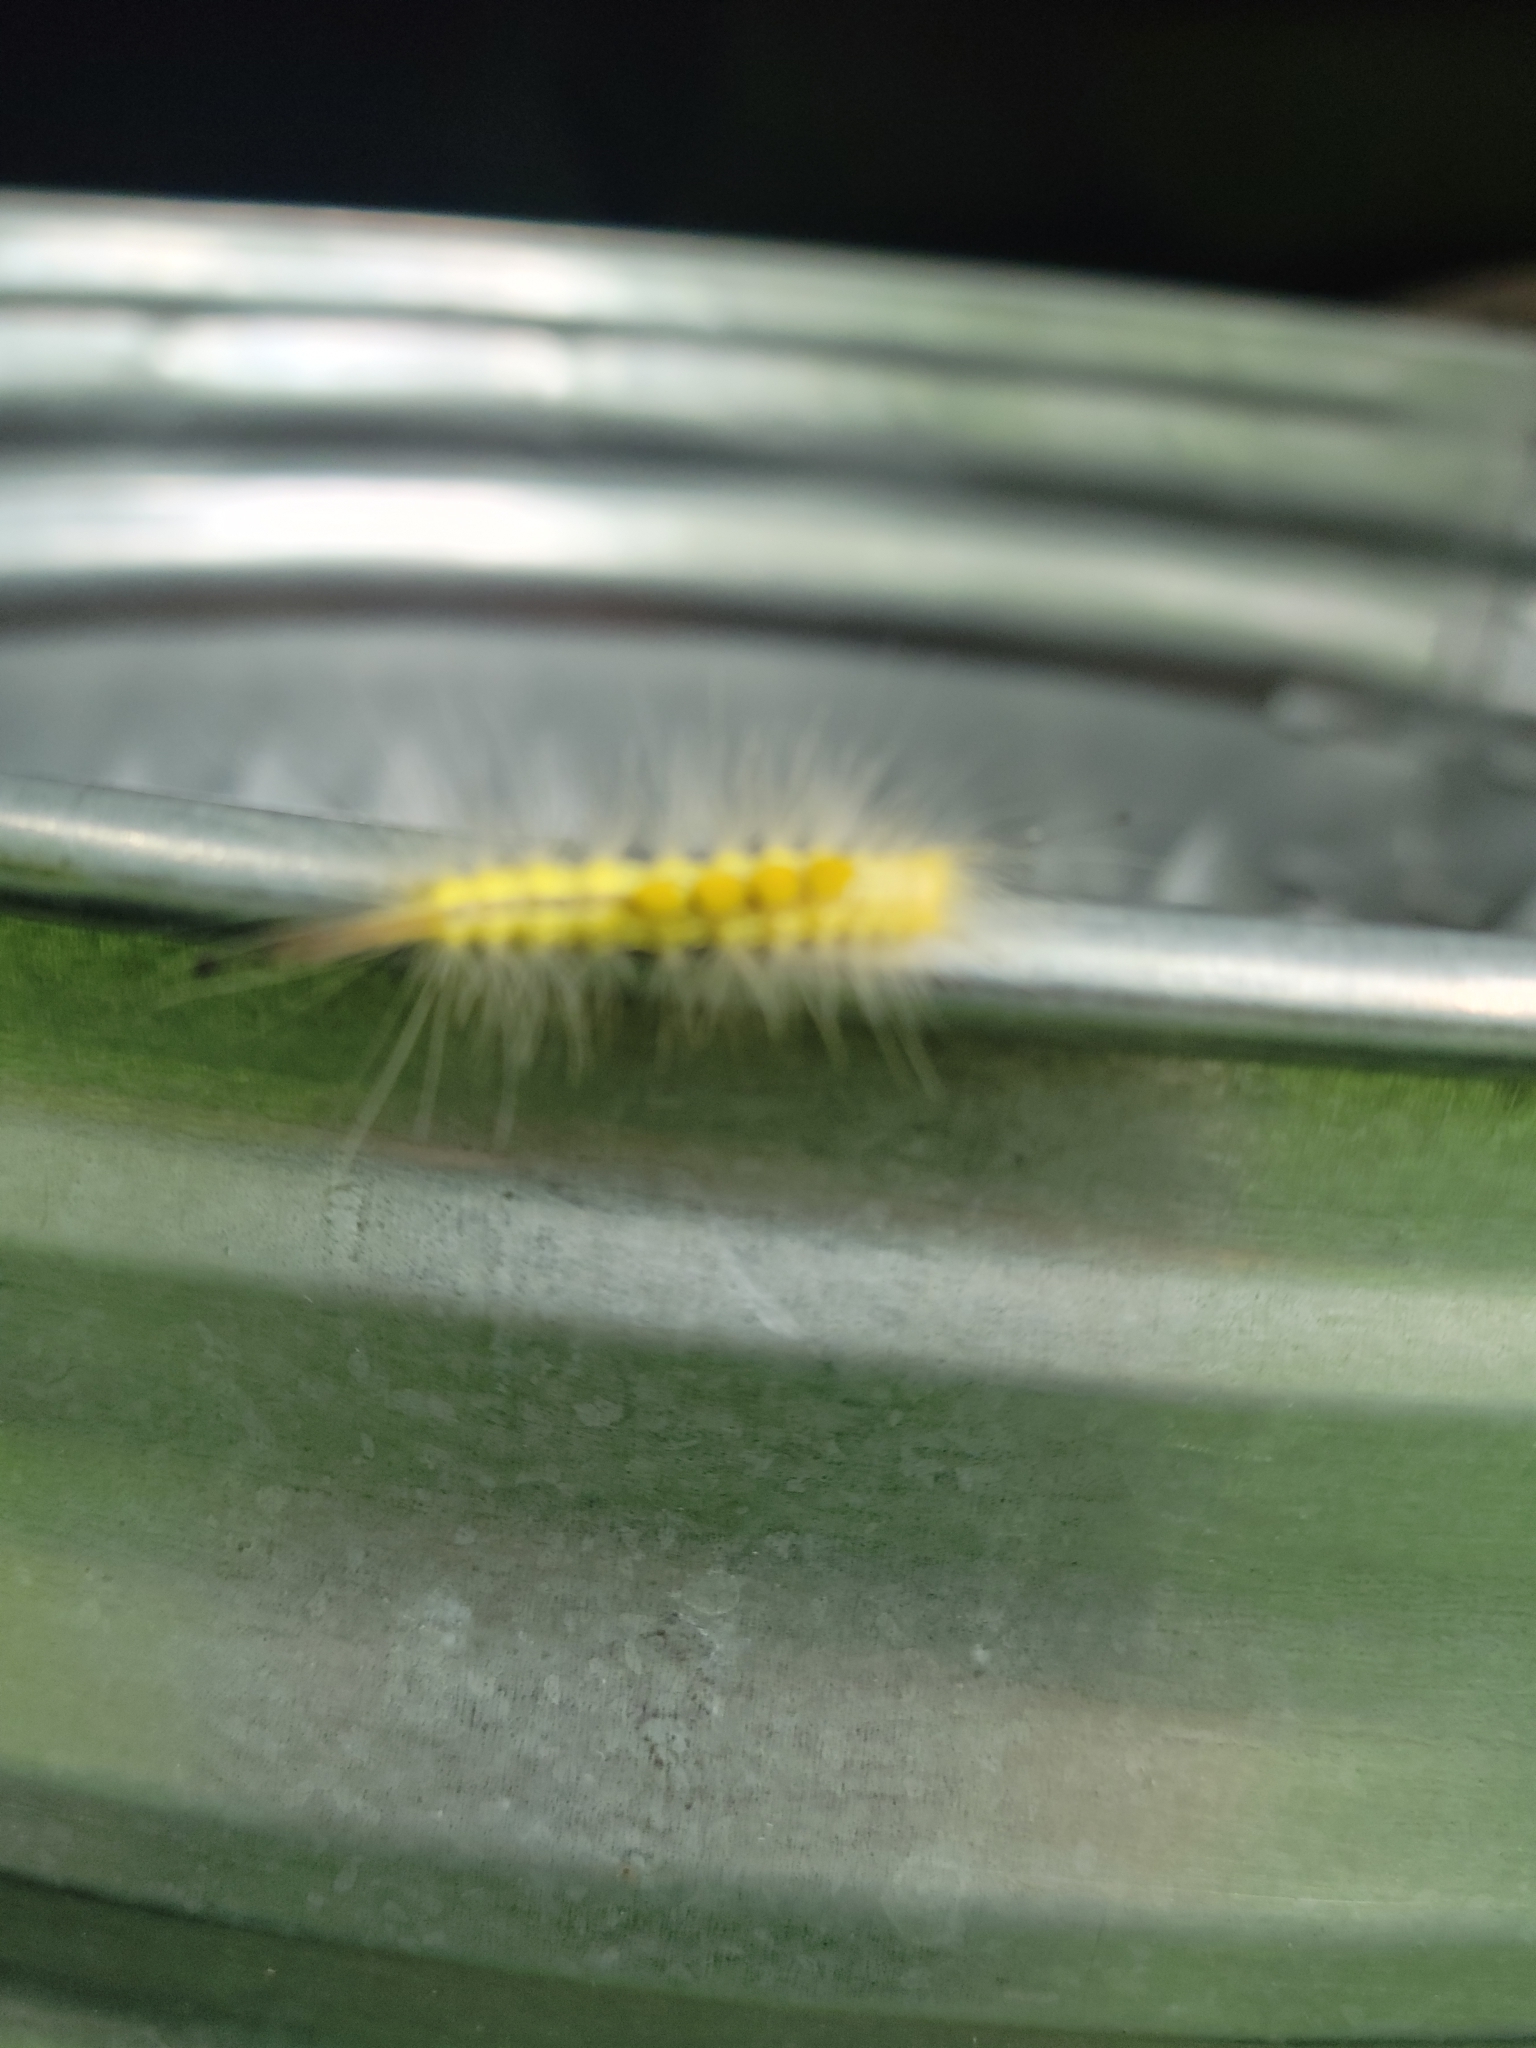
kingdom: Animalia
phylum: Arthropoda
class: Insecta
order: Lepidoptera
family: Erebidae
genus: Orgyia
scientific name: Orgyia definita
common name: Definite tussock moth
